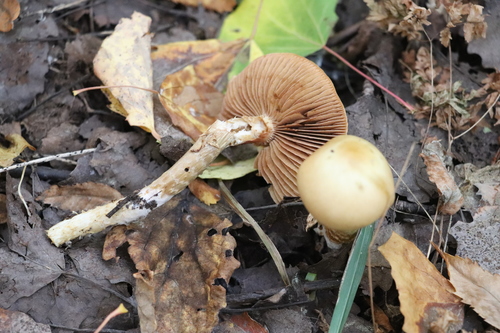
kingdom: Fungi
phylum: Basidiomycota
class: Agaricomycetes
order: Agaricales
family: Cortinariaceae
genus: Cortinarius
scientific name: Cortinarius trivialis
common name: Girdled webcap
